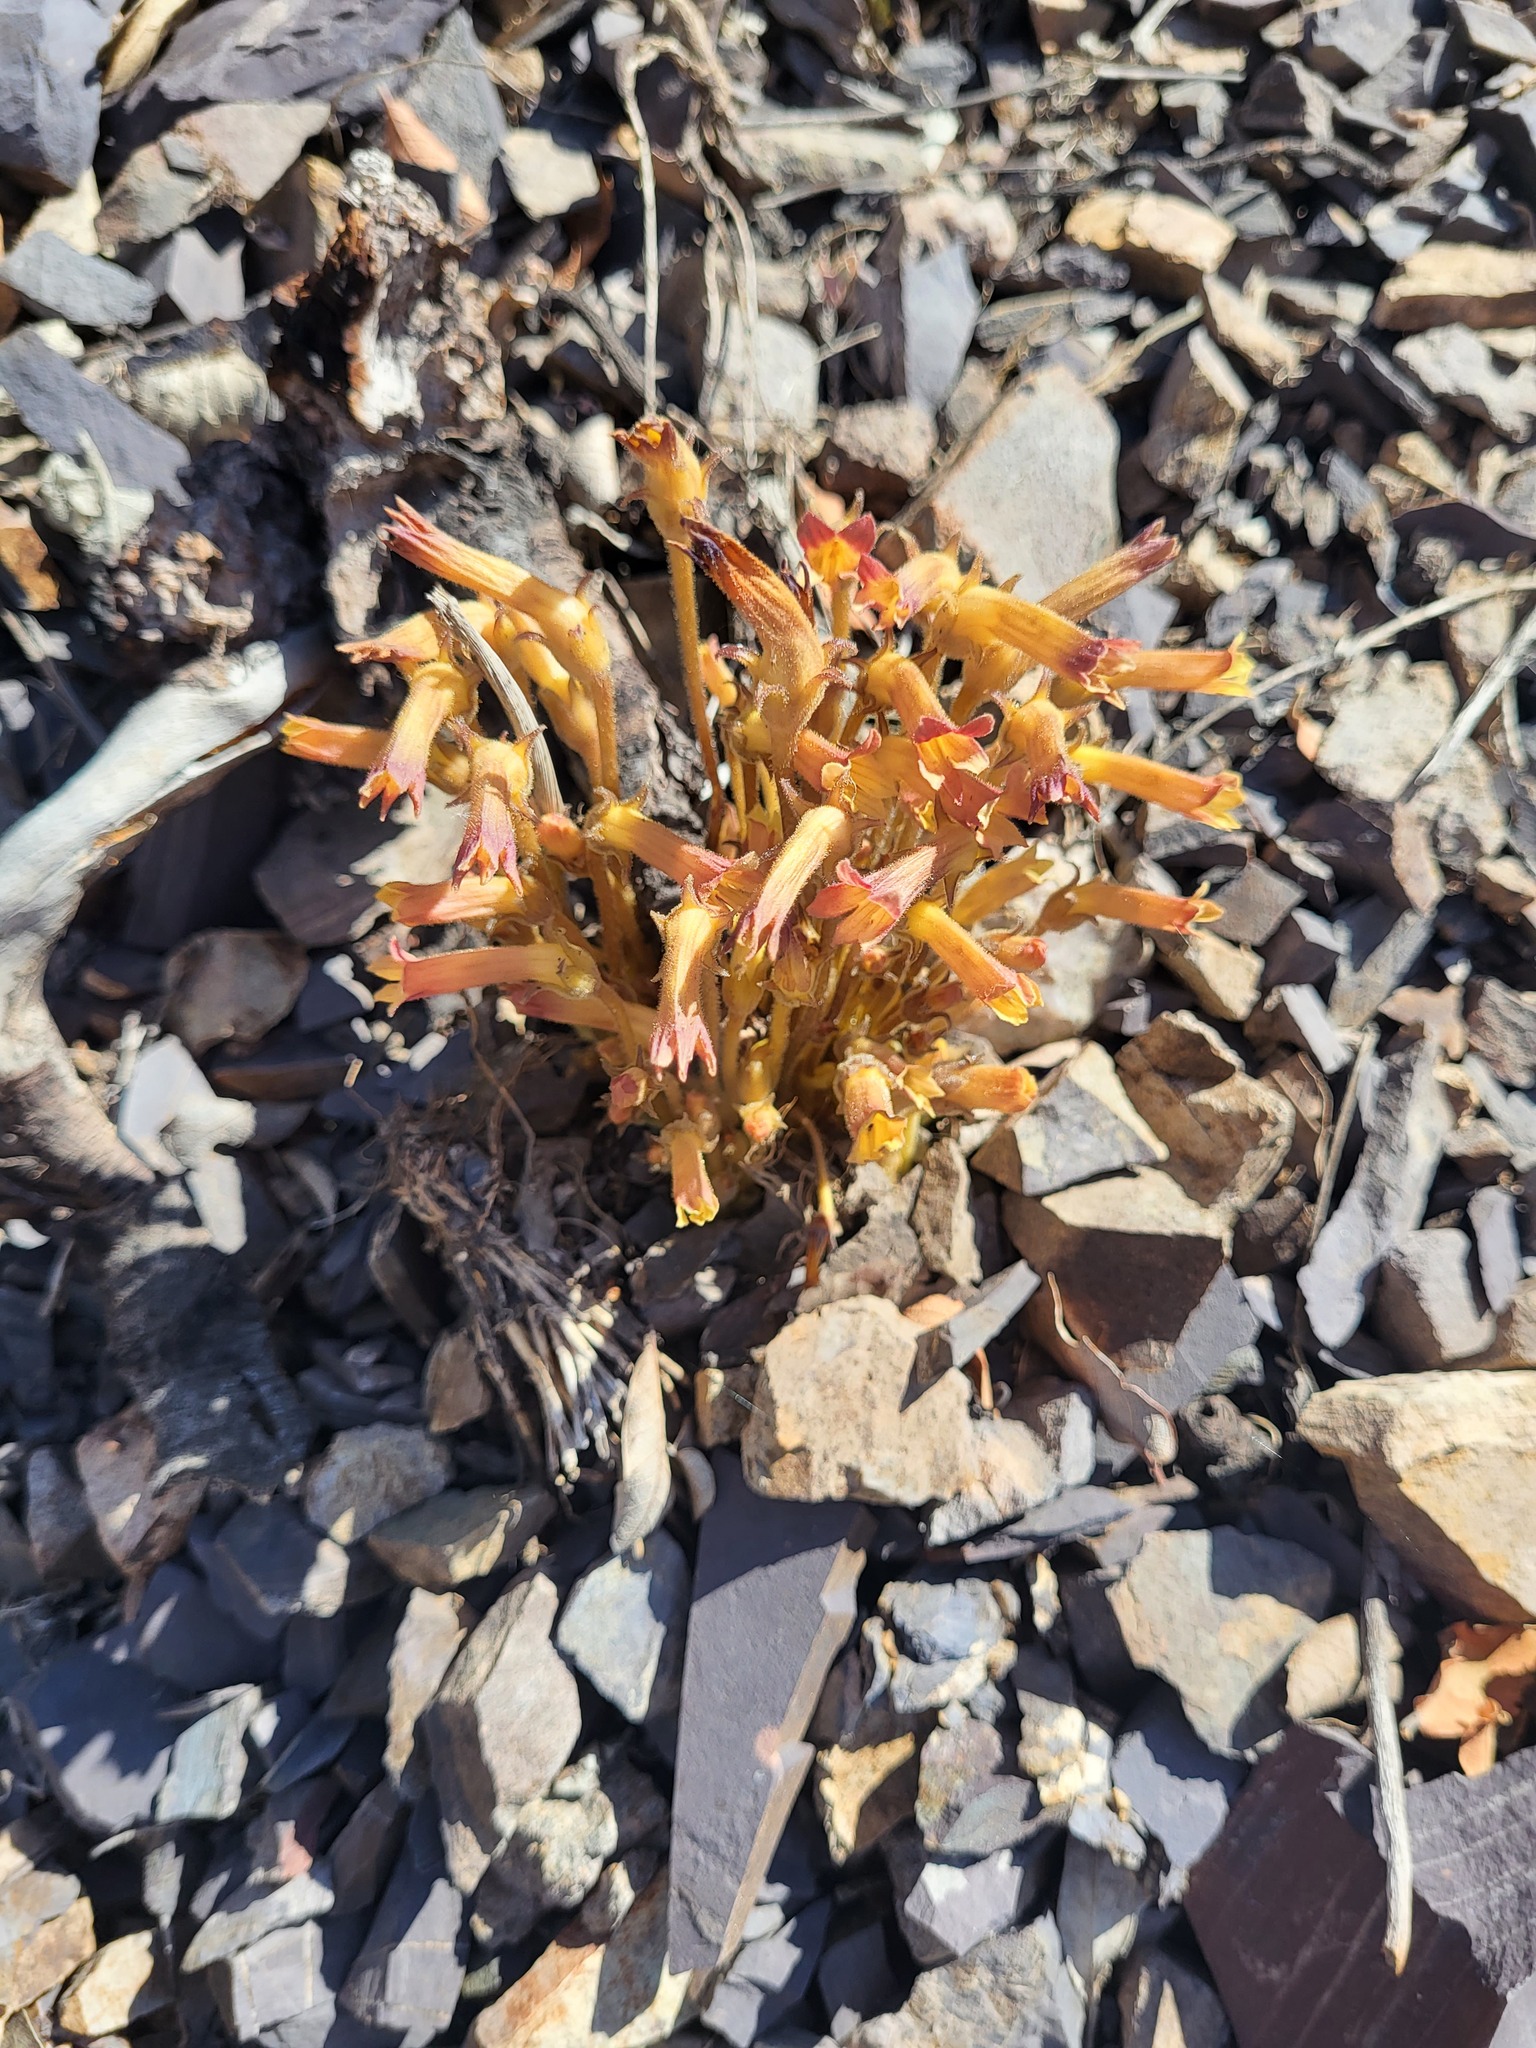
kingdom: Plantae
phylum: Tracheophyta
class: Magnoliopsida
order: Lamiales
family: Orobanchaceae
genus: Aphyllon
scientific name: Aphyllon franciscanum
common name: San francisco broomrape
